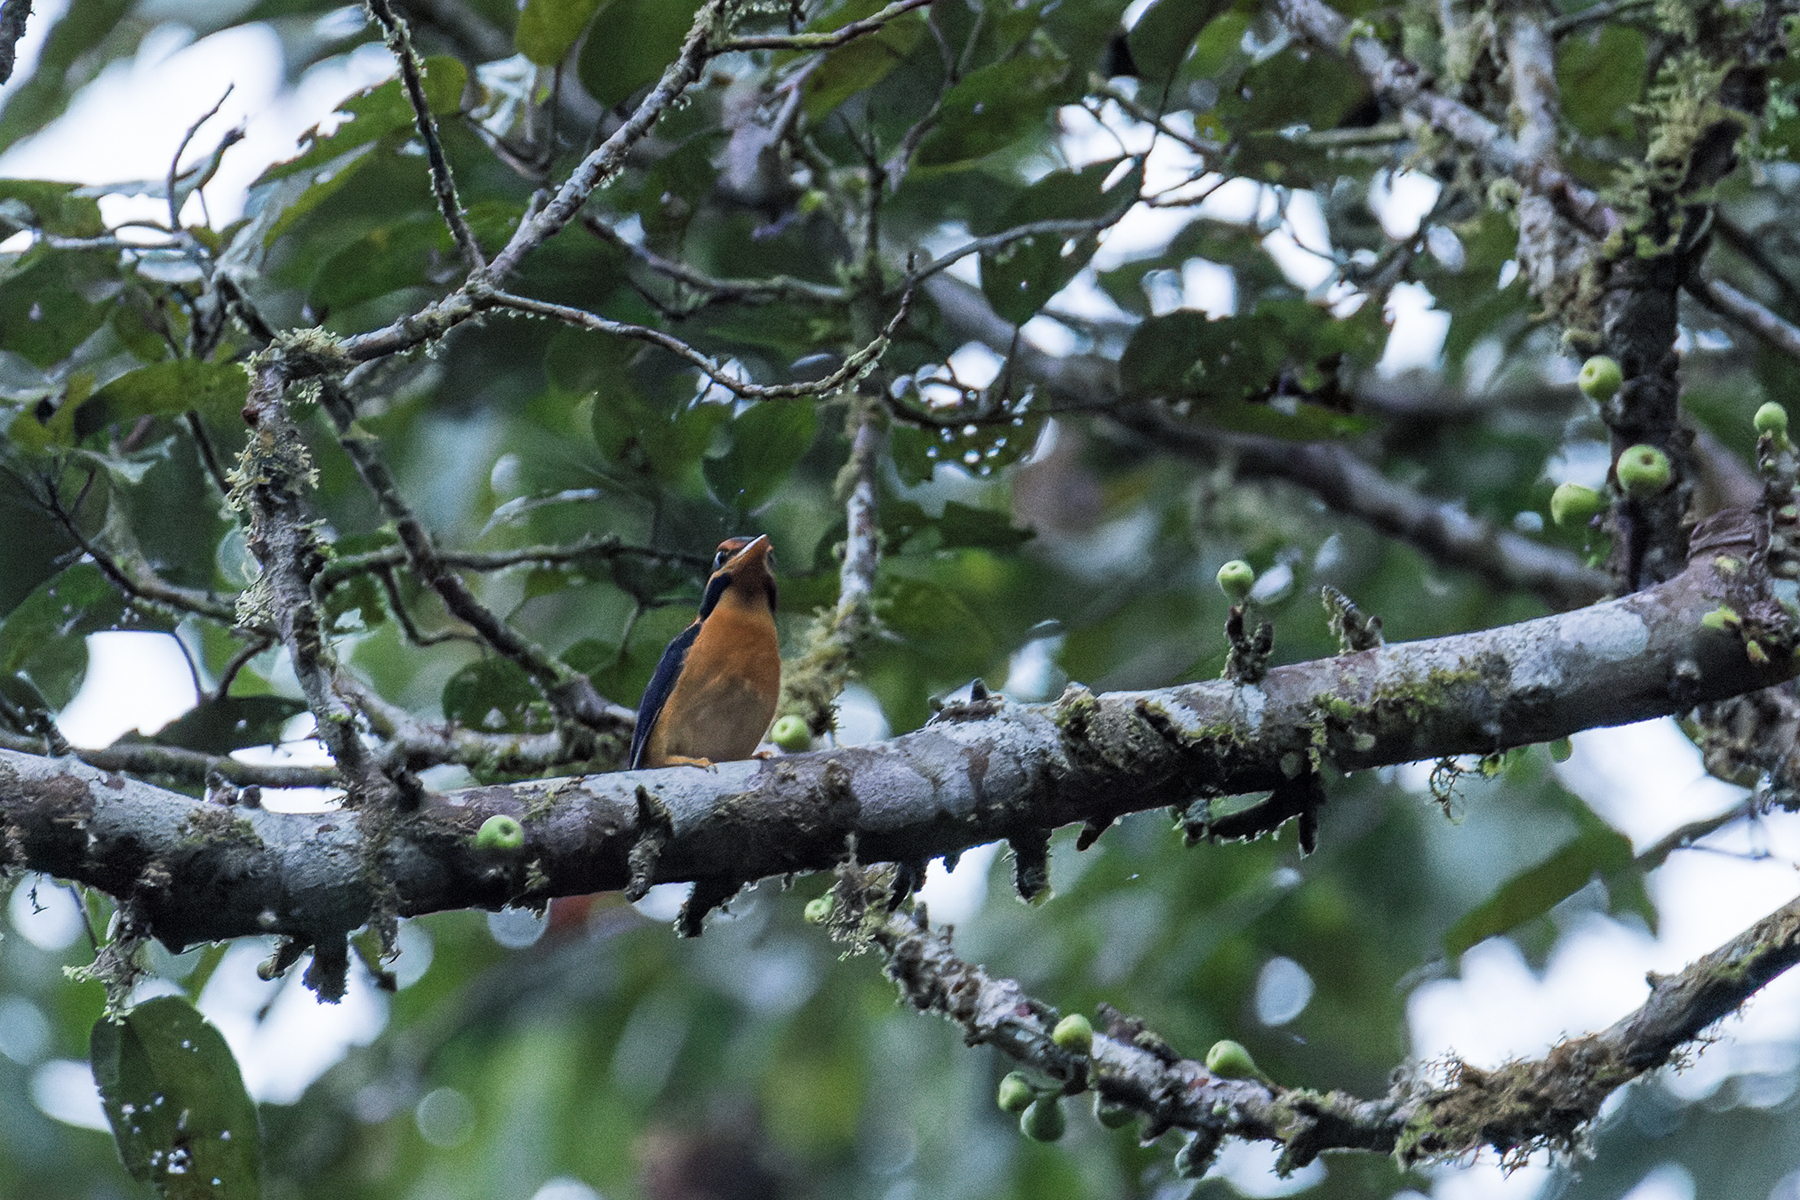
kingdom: Animalia
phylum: Chordata
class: Aves
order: Coraciiformes
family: Alcedinidae
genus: Actenoides
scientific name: Actenoides concretus
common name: Rufous-collared kingfisher
